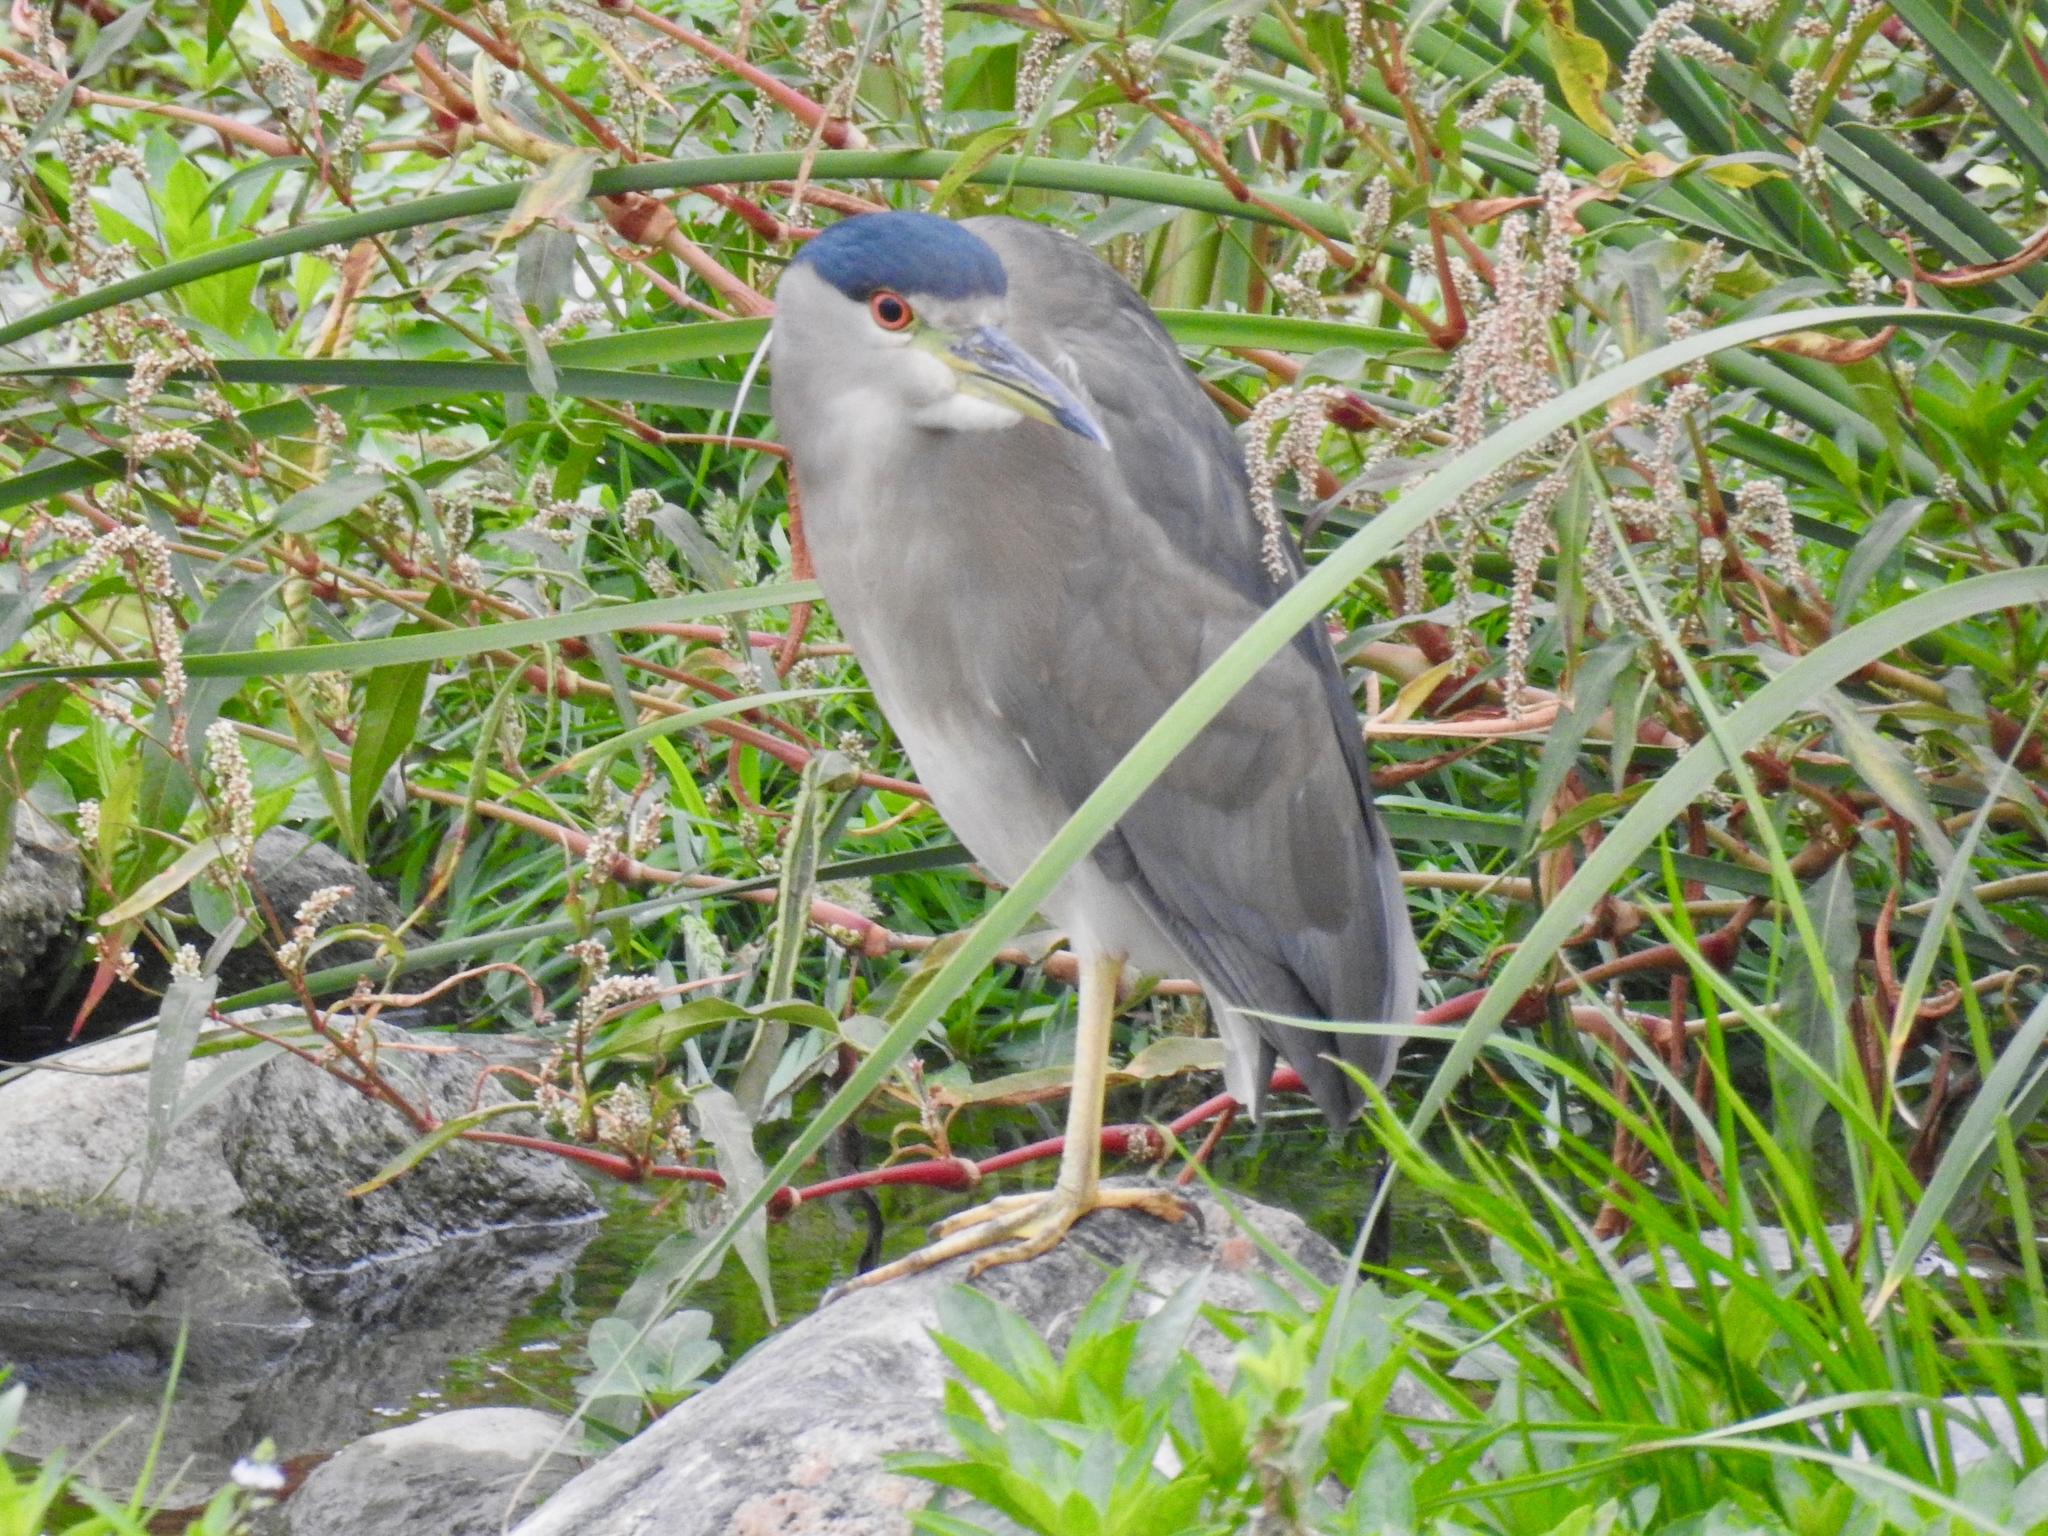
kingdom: Animalia
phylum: Chordata
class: Aves
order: Pelecaniformes
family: Ardeidae
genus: Nycticorax
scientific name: Nycticorax nycticorax
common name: Black-crowned night heron
